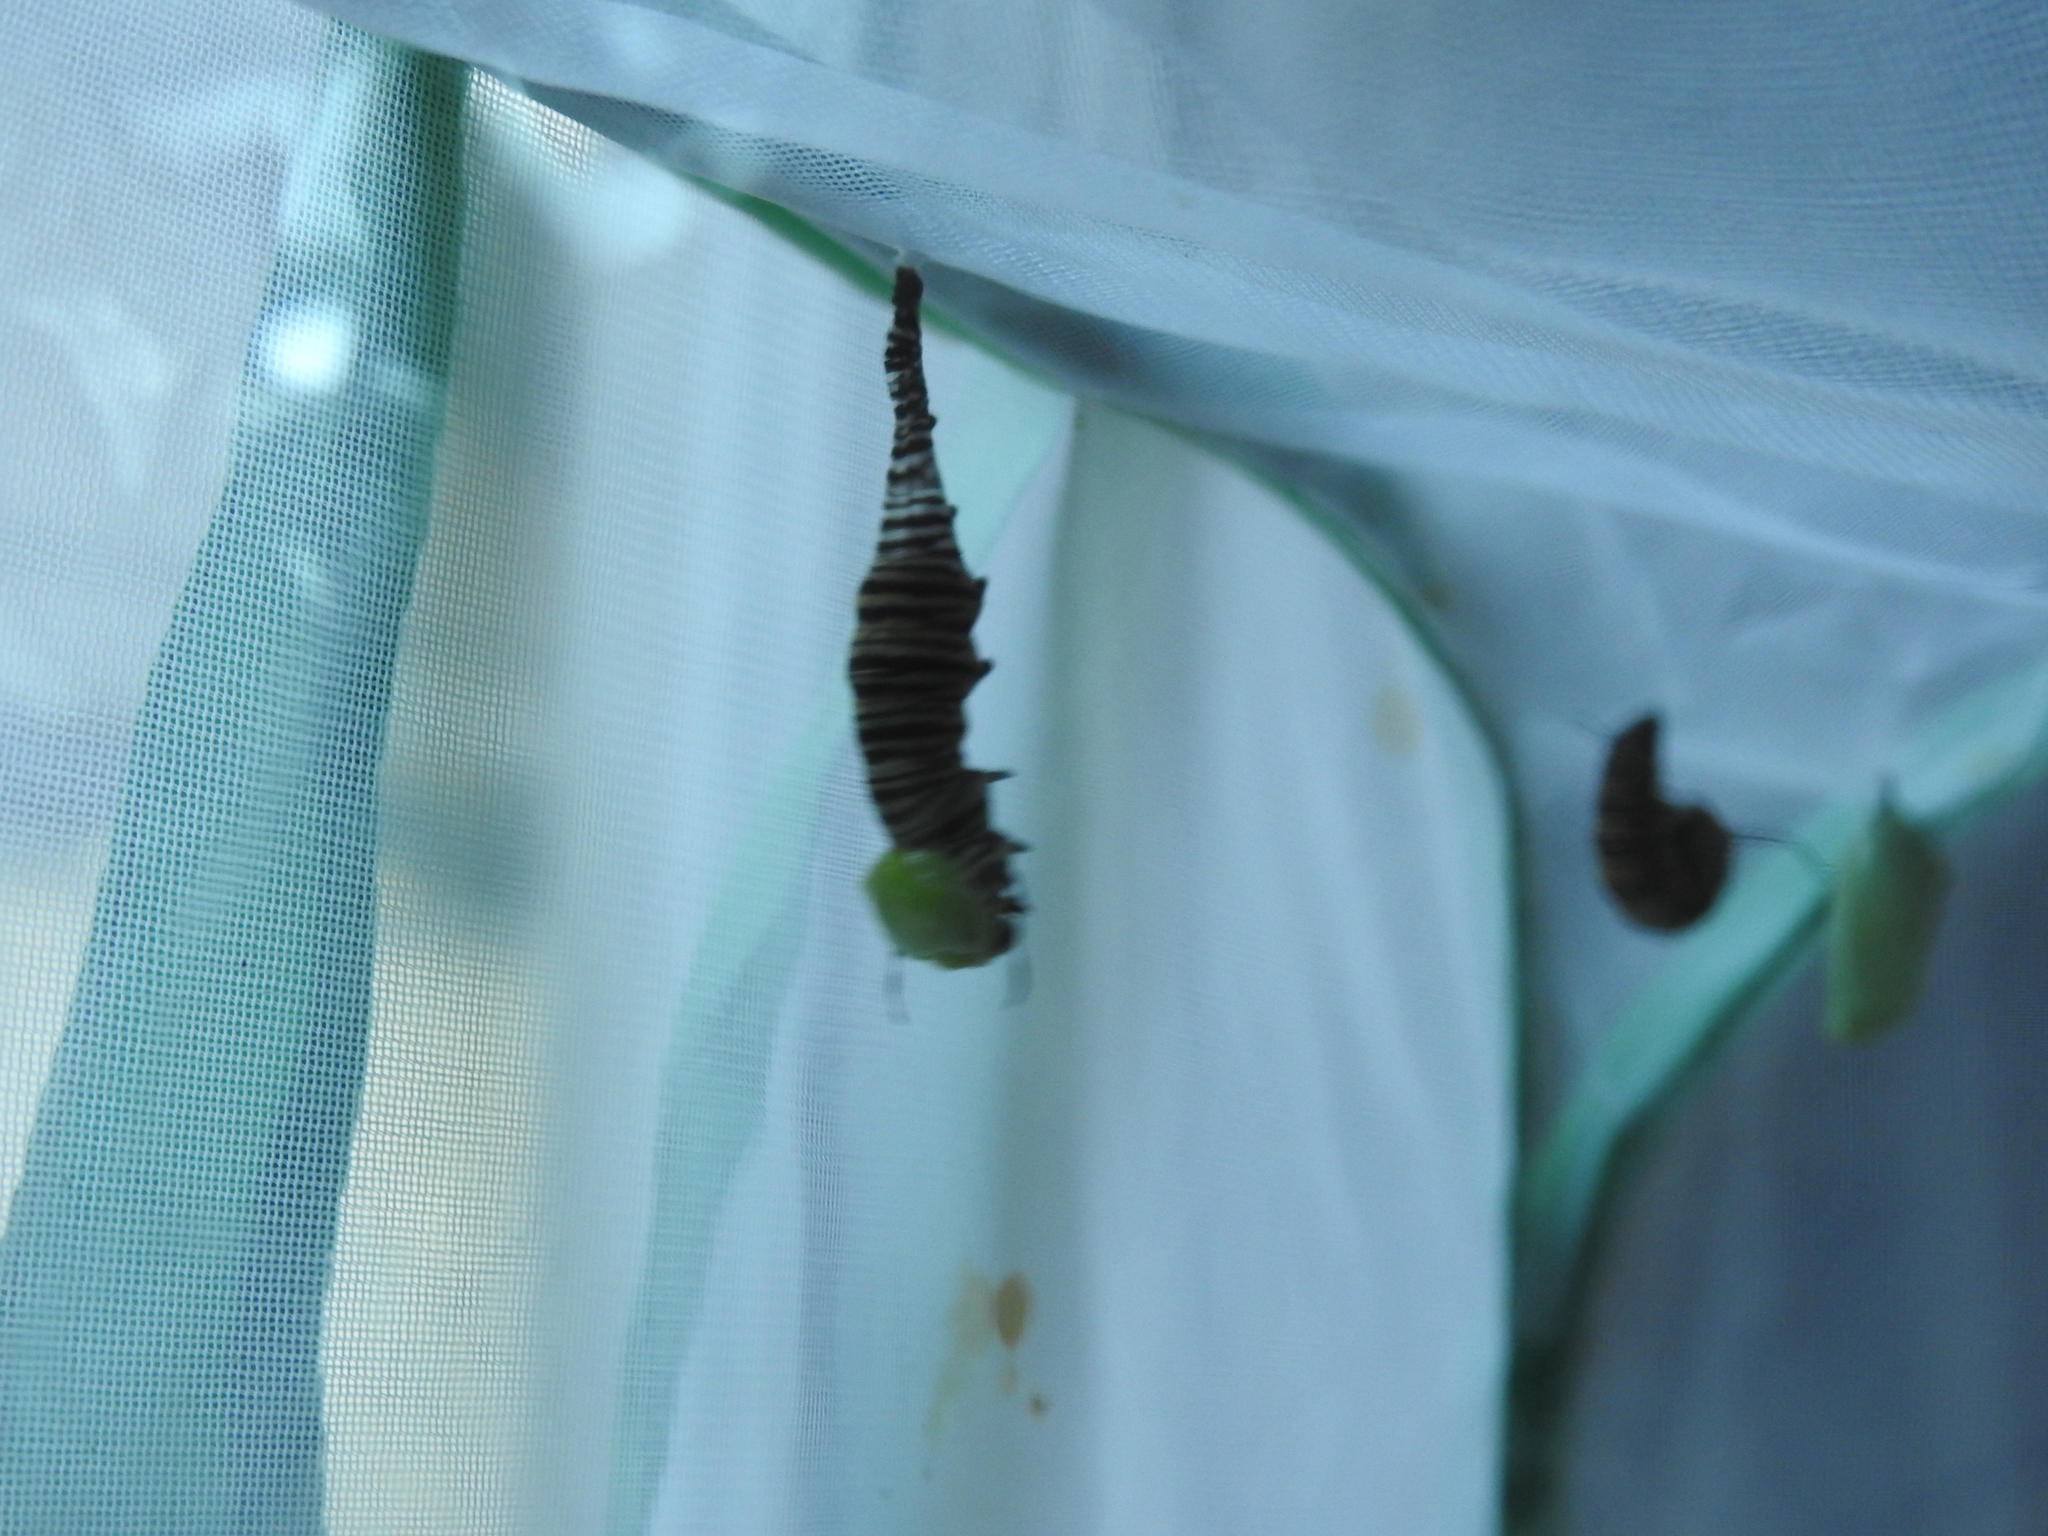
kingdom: Animalia
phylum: Arthropoda
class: Insecta
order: Lepidoptera
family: Nymphalidae
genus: Danaus
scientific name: Danaus plexippus
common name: Monarch
